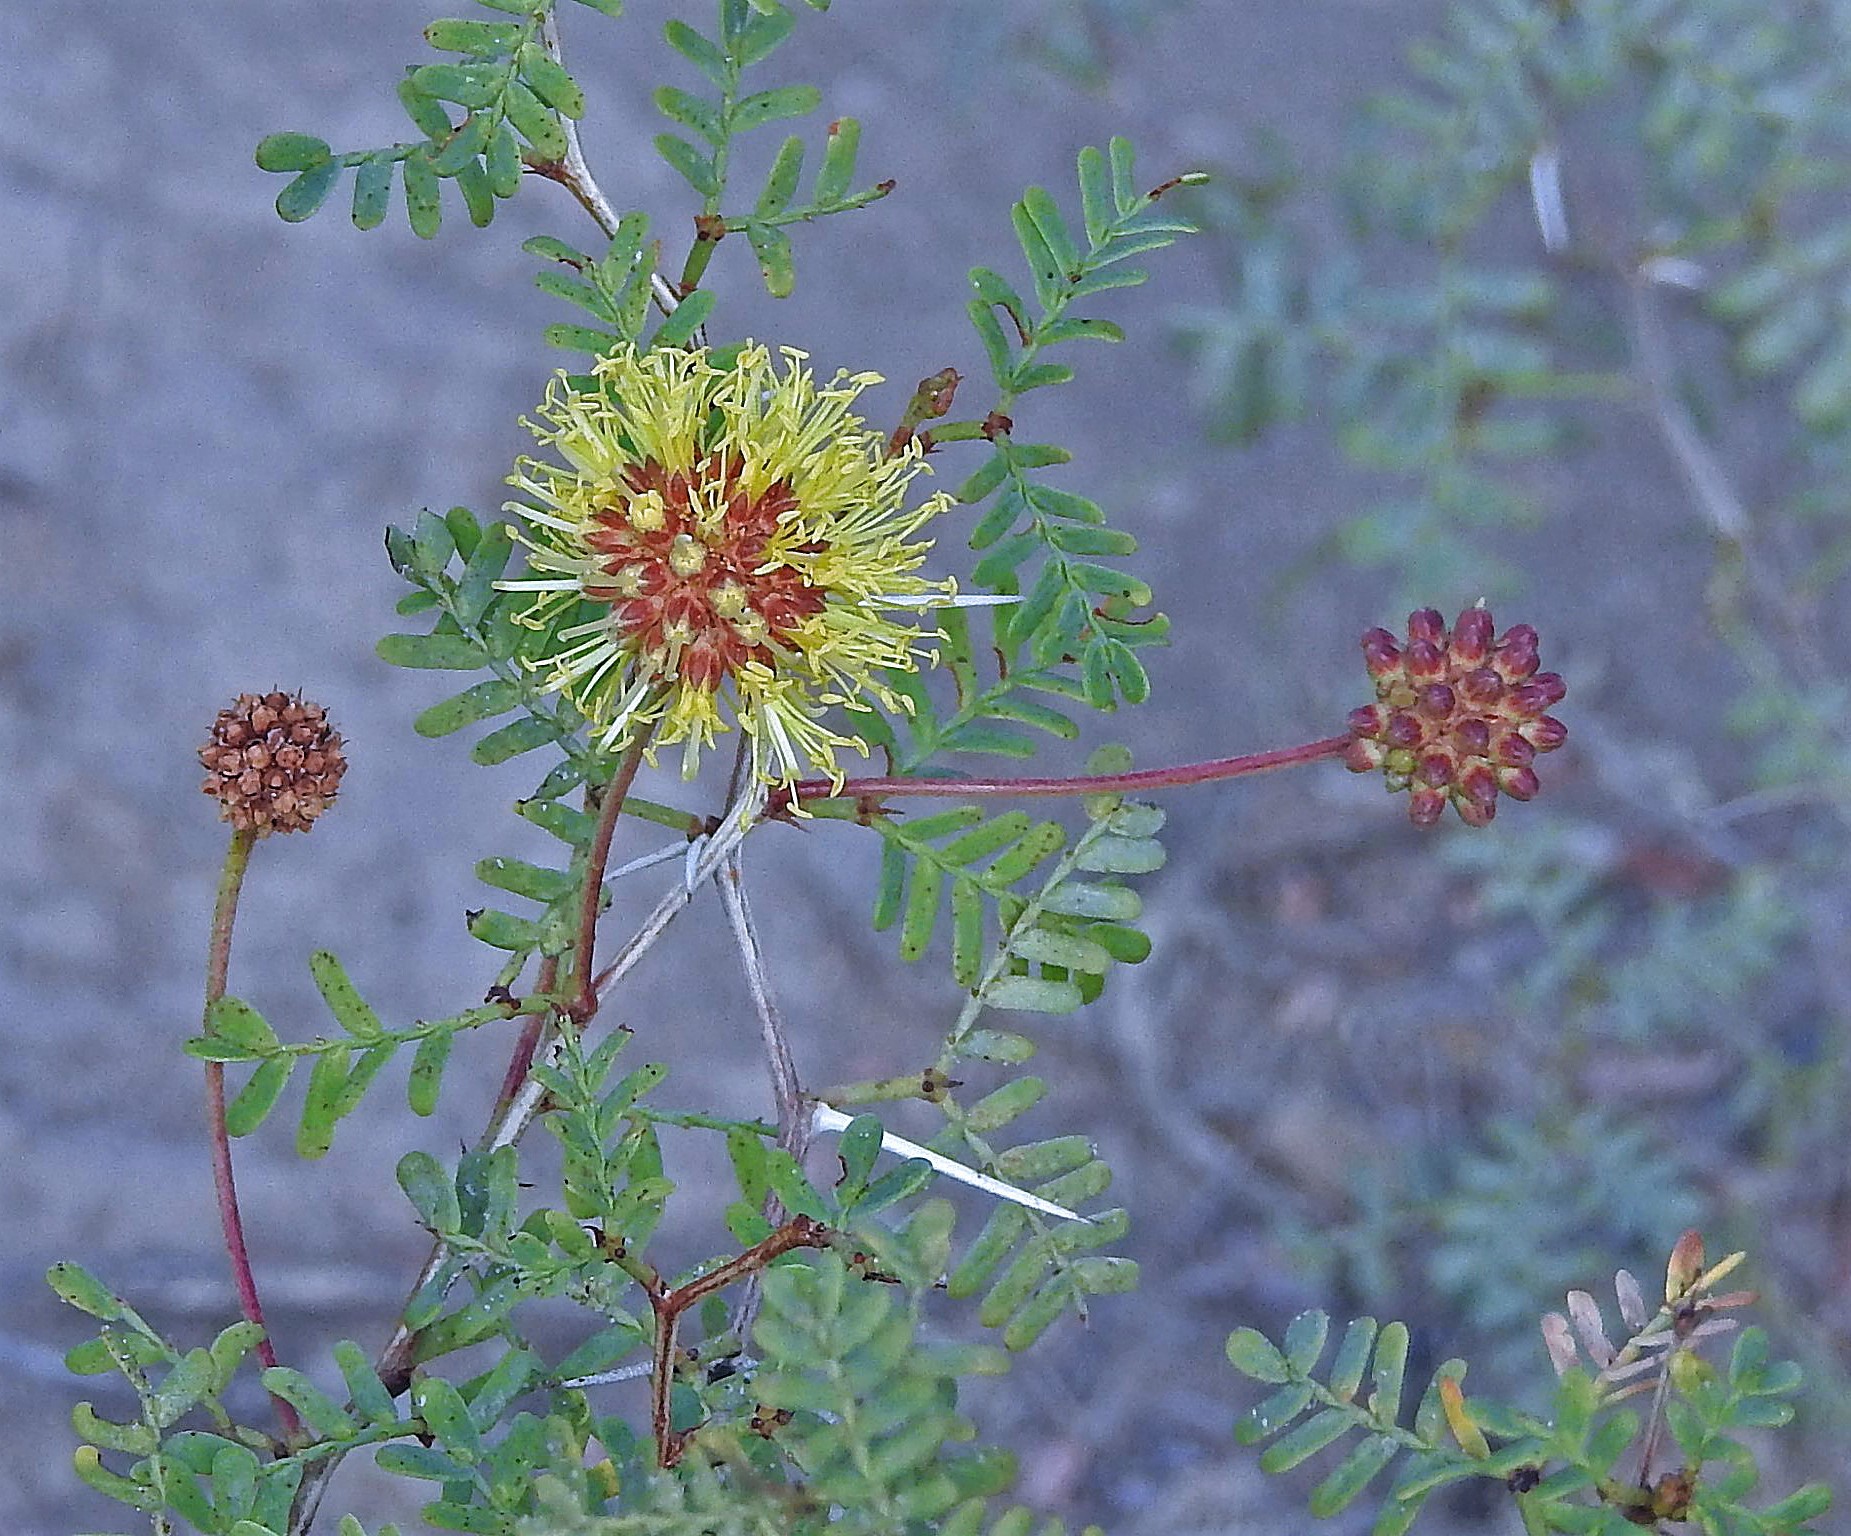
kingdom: Plantae
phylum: Tracheophyta
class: Magnoliopsida
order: Fabales
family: Fabaceae
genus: Prosopis
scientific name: Prosopis strombulifera
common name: Creeping mesquite
